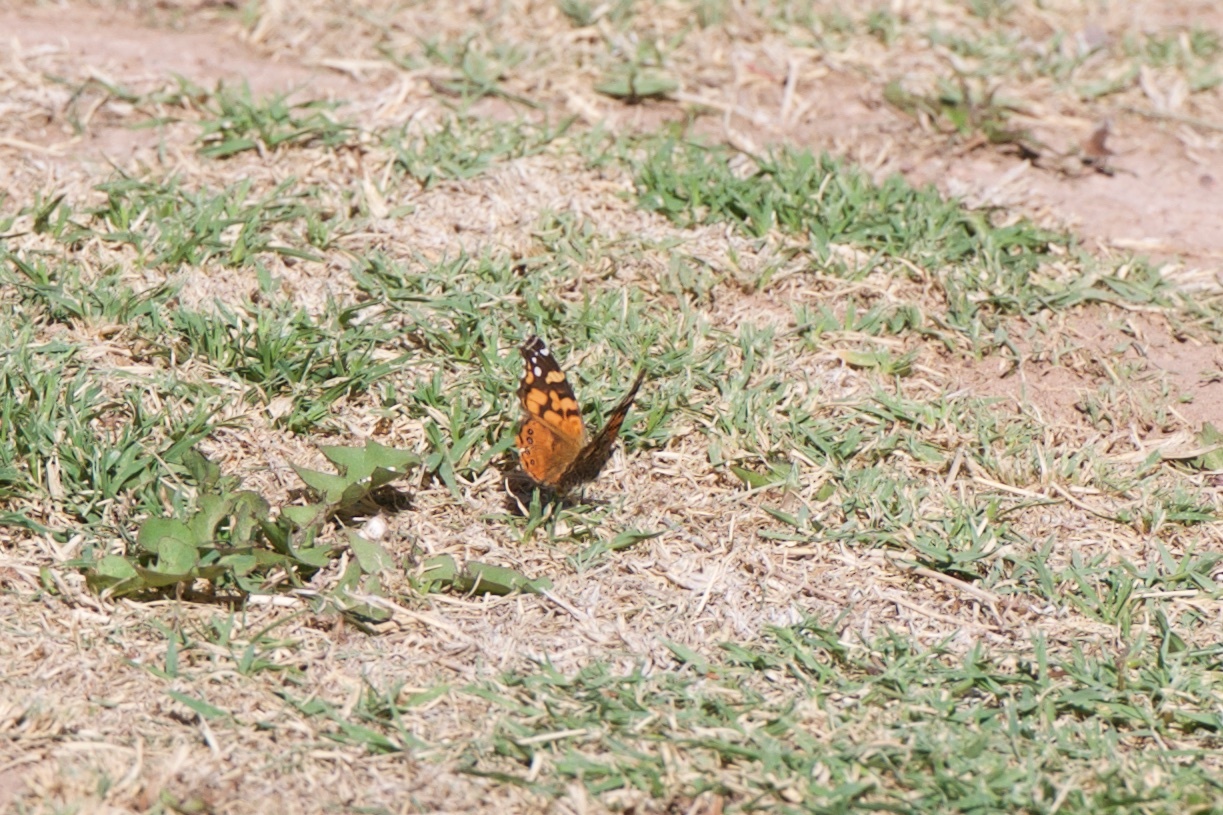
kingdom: Animalia
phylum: Arthropoda
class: Insecta
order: Lepidoptera
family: Nymphalidae
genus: Vanessa
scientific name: Vanessa carye
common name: Subtropical lady
